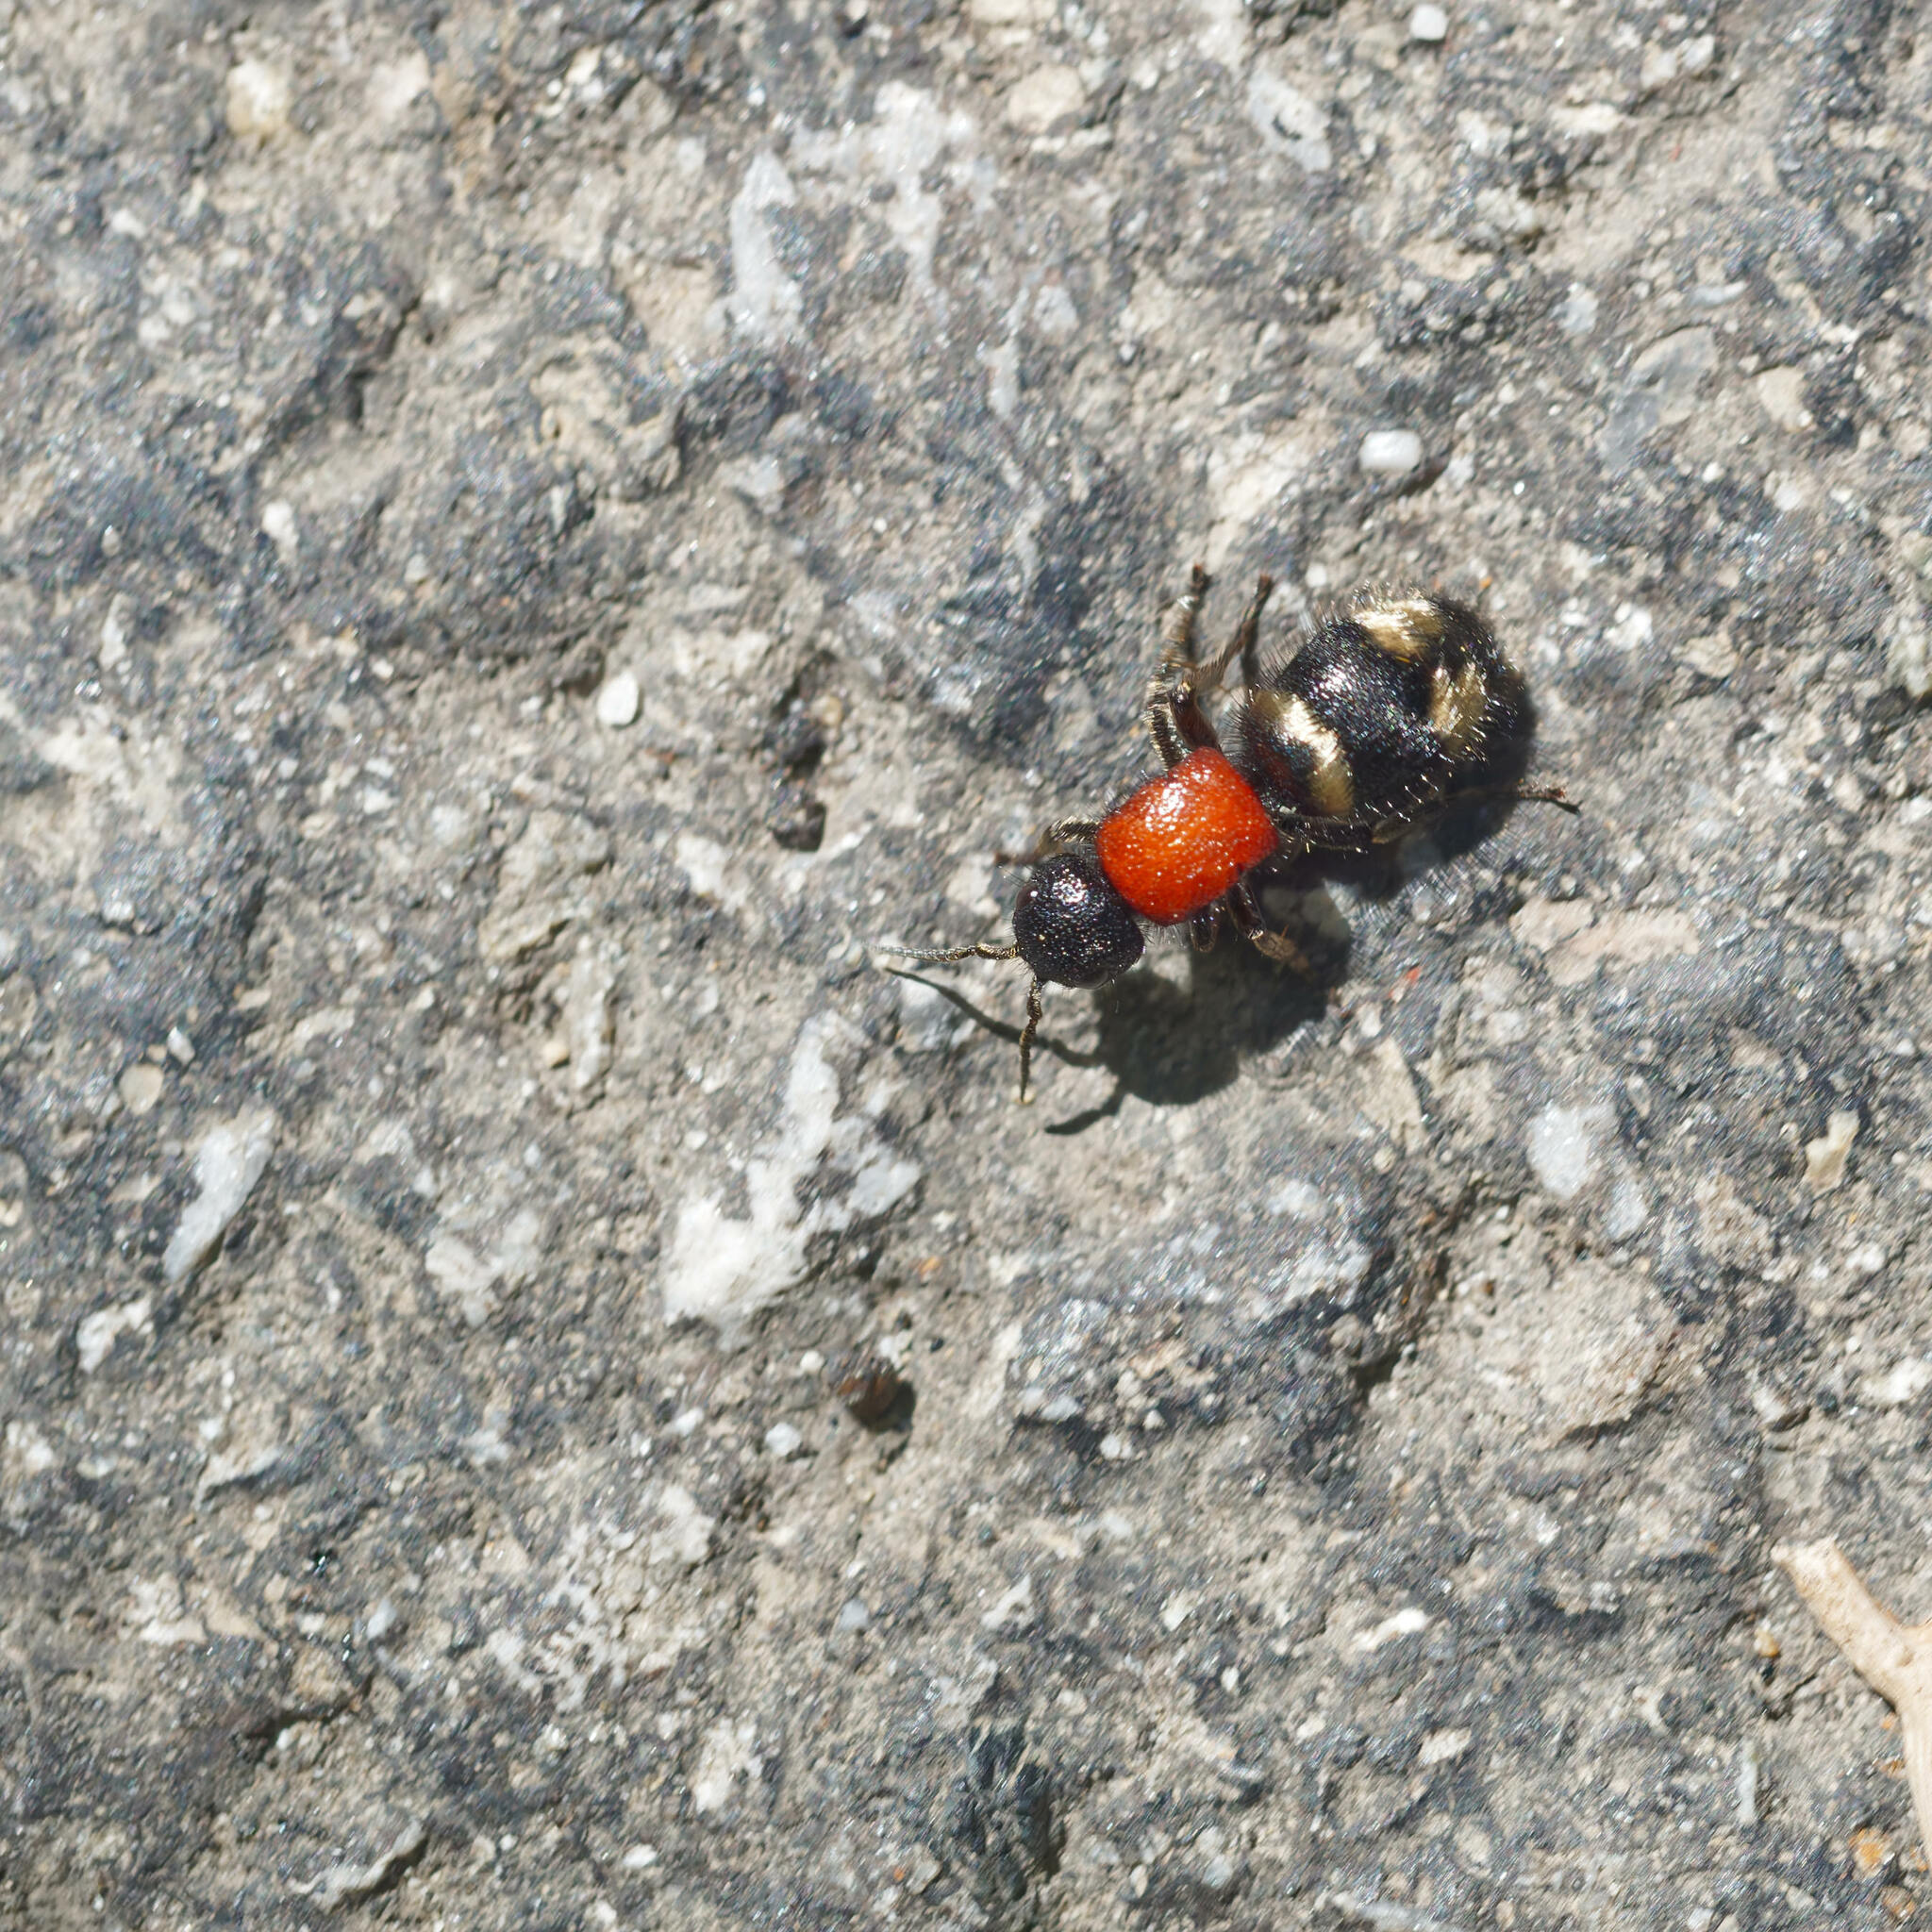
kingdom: Animalia
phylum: Arthropoda
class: Insecta
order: Hymenoptera
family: Mutillidae
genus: Mutilla
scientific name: Mutilla europaea
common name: Large velvet ant
